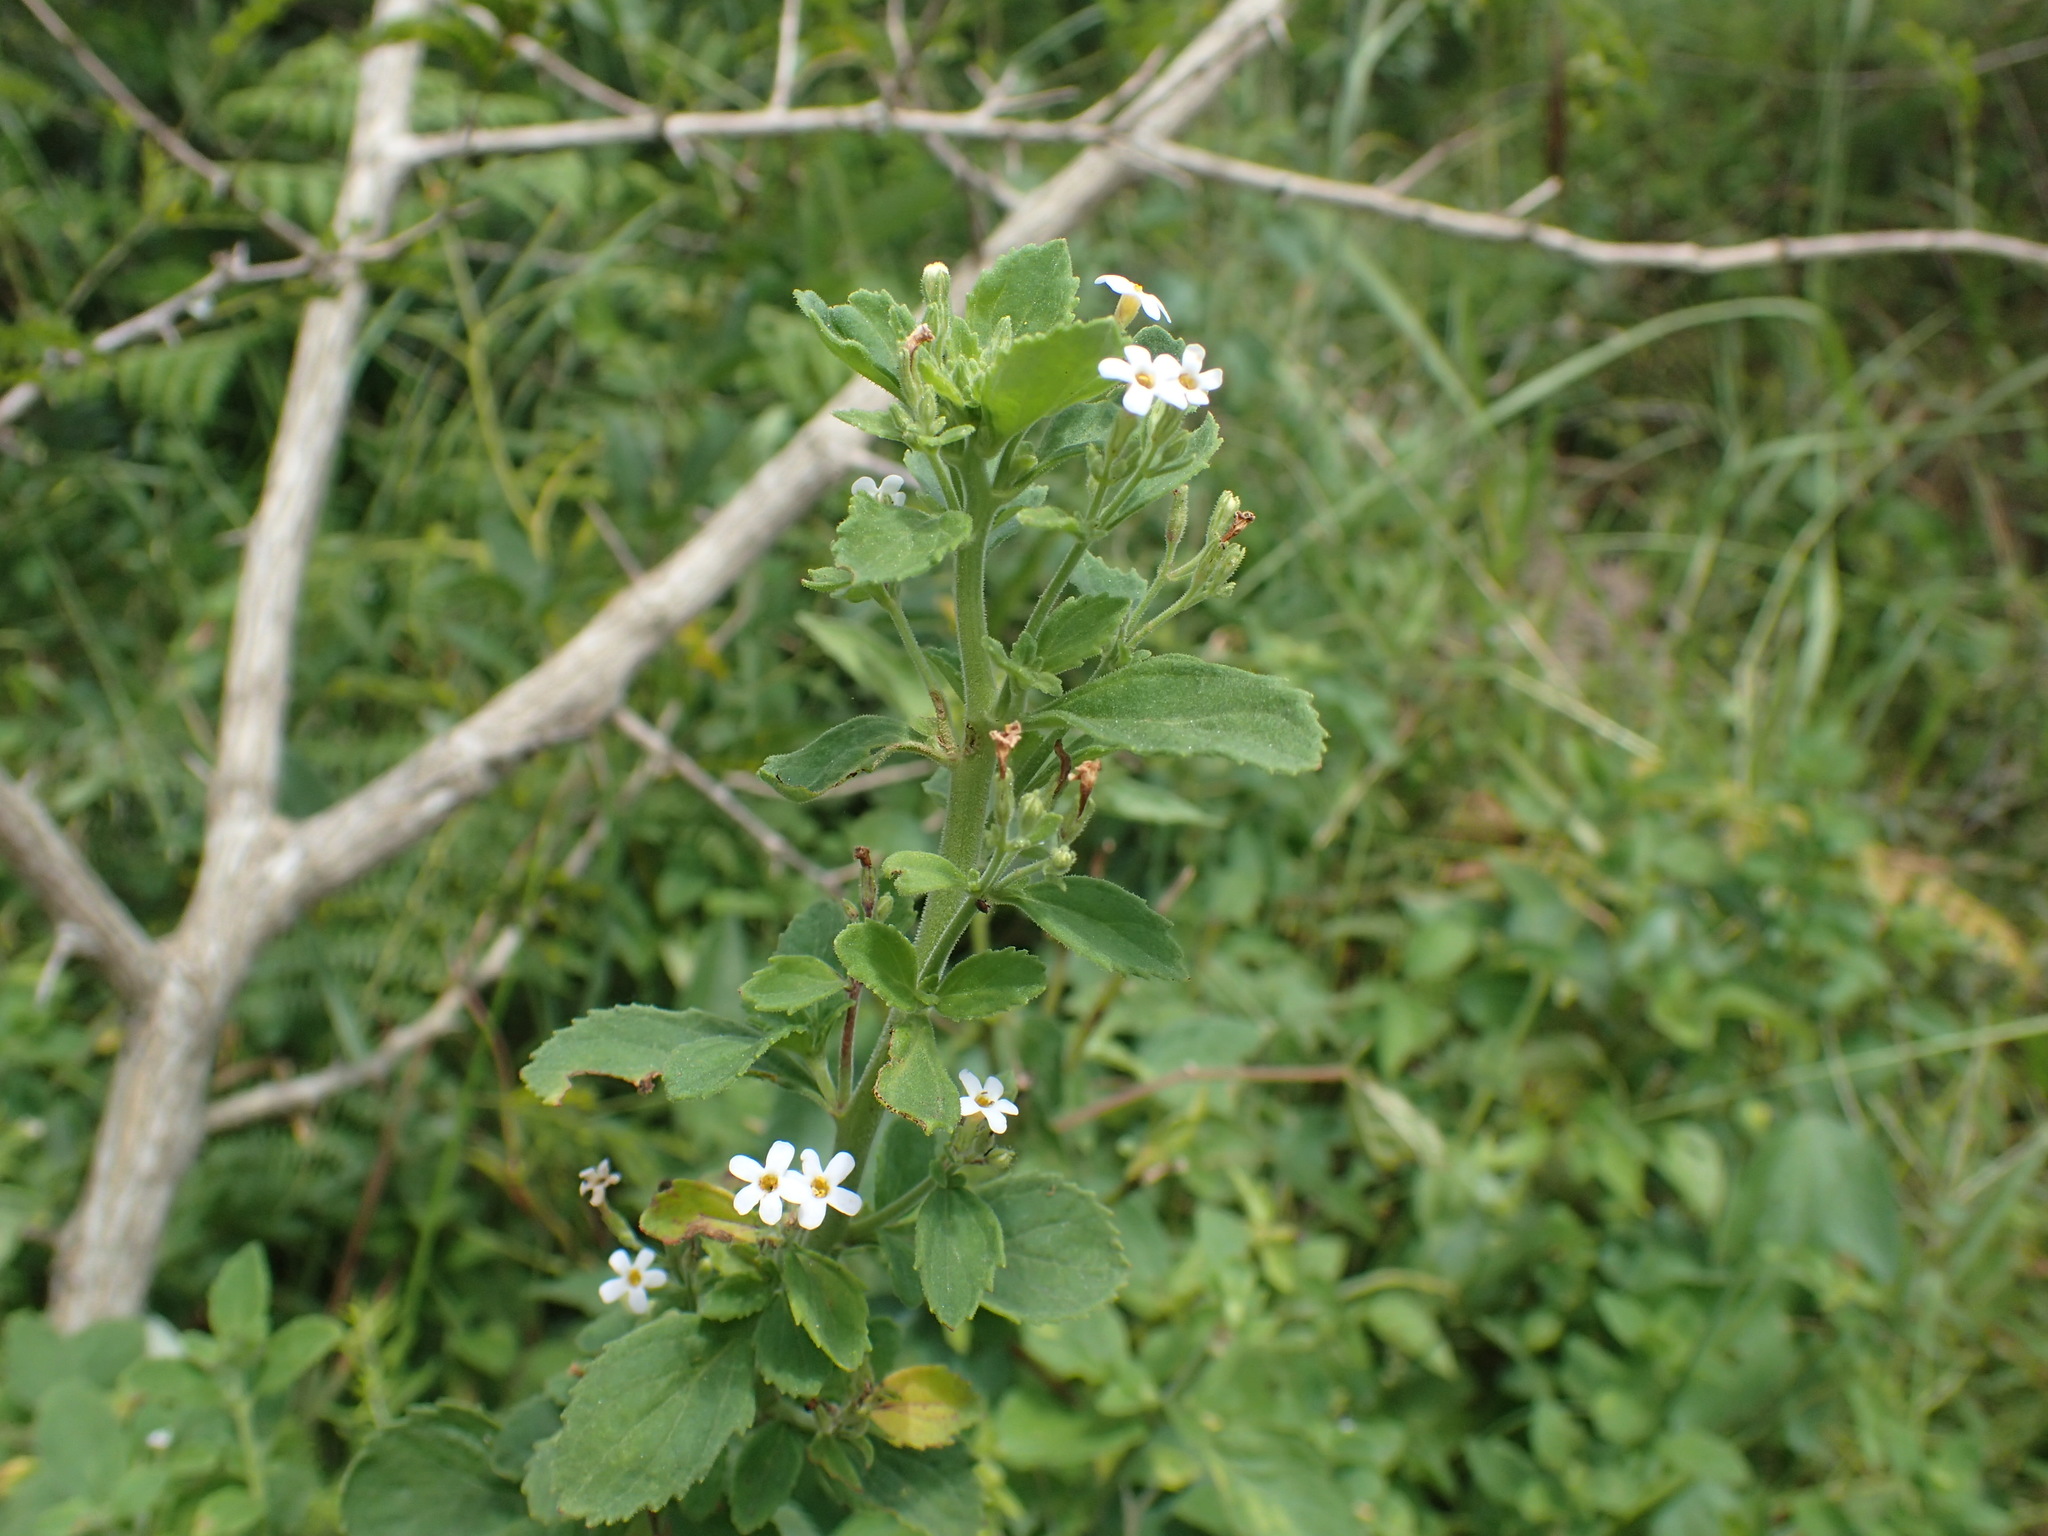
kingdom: Plantae
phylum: Tracheophyta
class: Magnoliopsida
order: Lamiales
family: Scrophulariaceae
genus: Chaenostoma
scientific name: Chaenostoma floribundum
